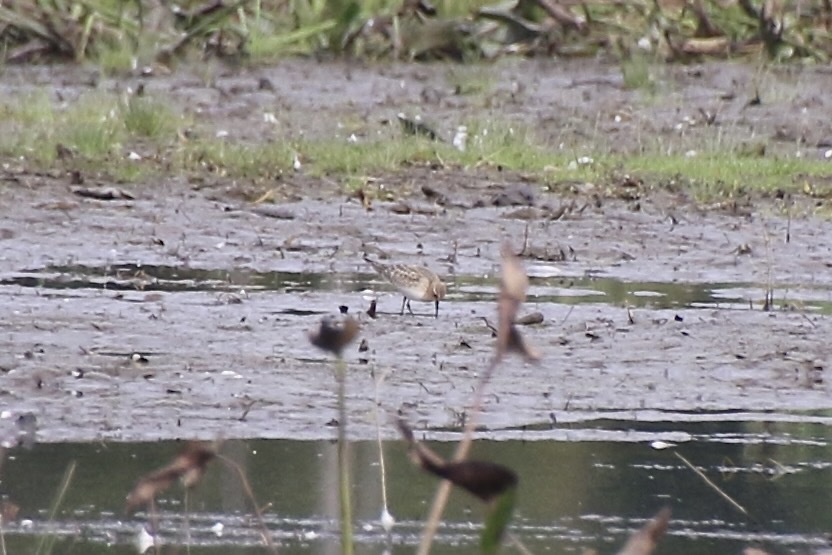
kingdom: Animalia
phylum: Chordata
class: Aves
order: Charadriiformes
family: Scolopacidae
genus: Calidris
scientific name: Calidris bairdii
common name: Baird's sandpiper
